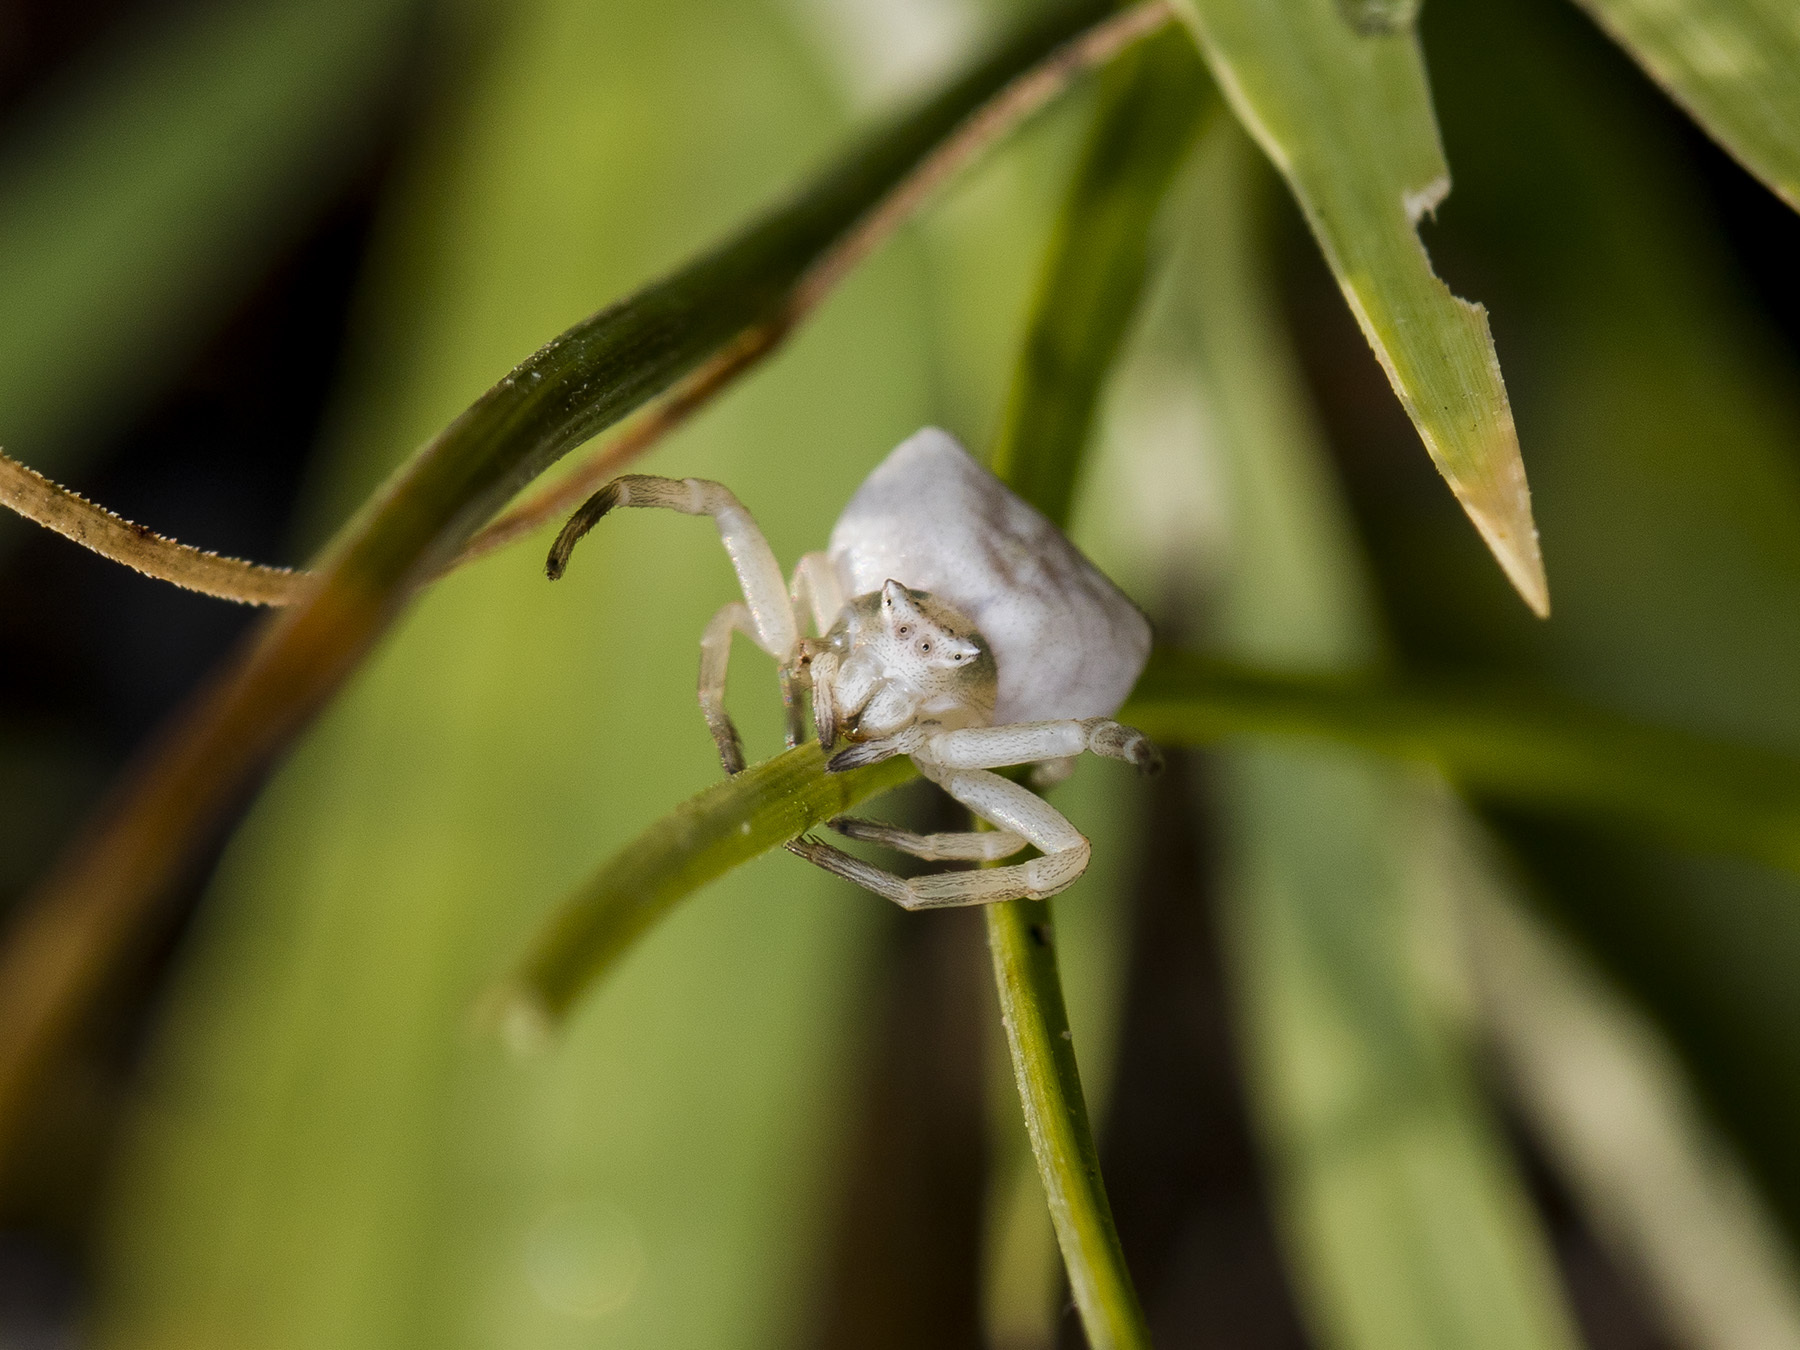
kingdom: Animalia
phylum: Arthropoda
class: Arachnida
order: Araneae
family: Thomisidae
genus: Thomisus
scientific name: Thomisus onustus
